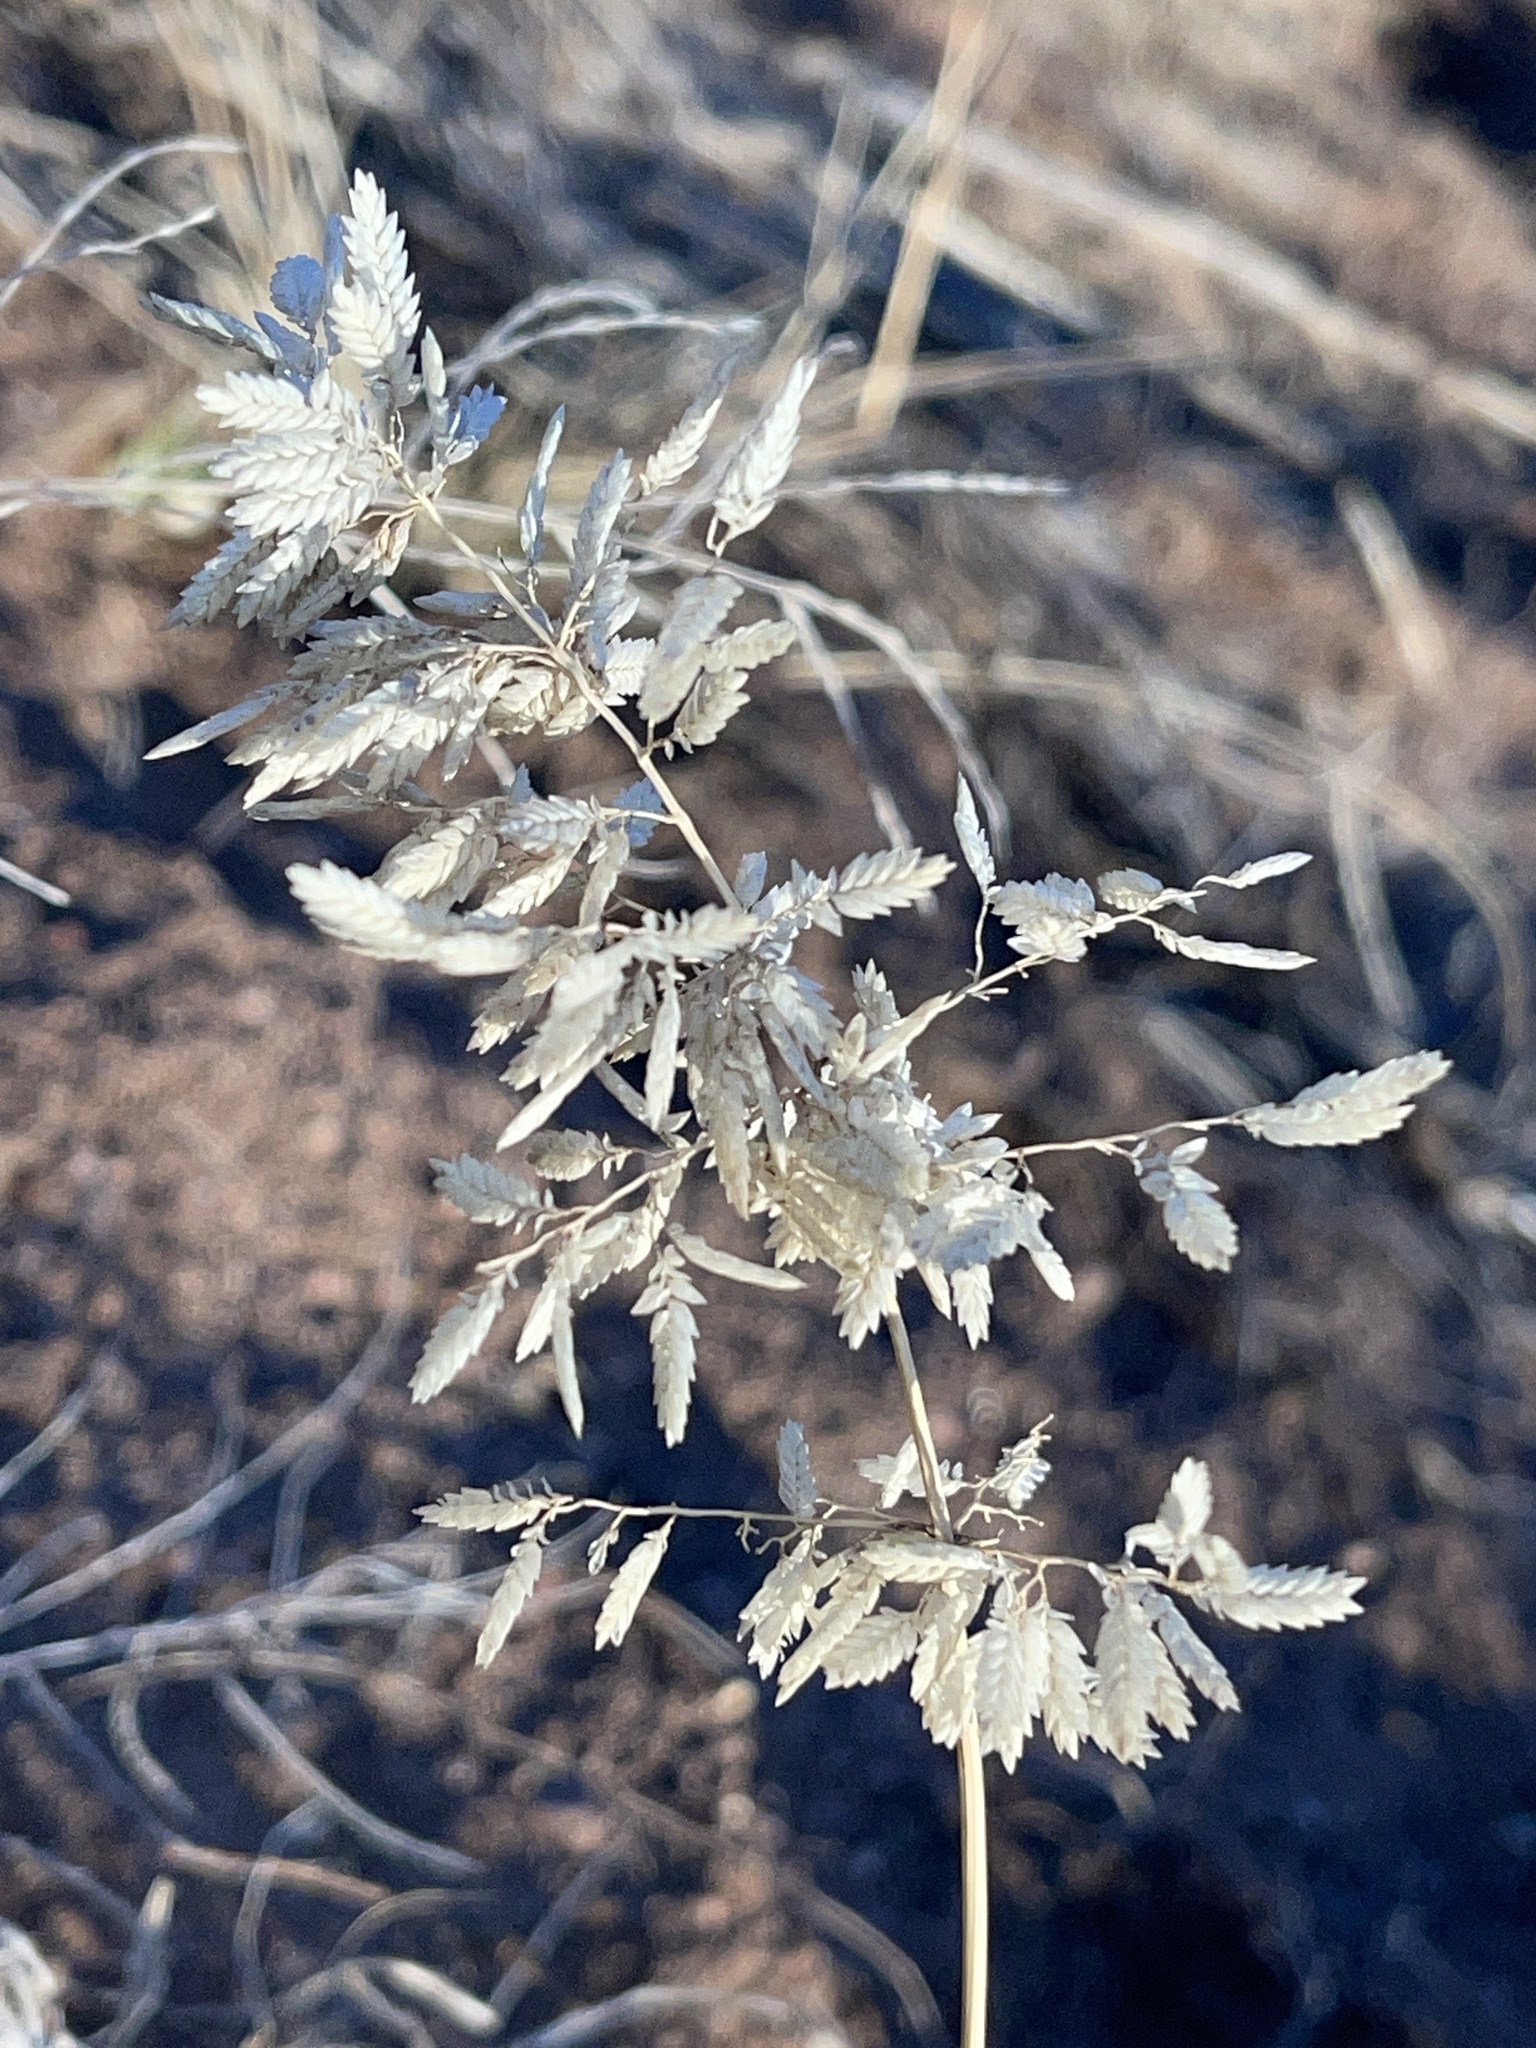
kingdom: Plantae
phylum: Tracheophyta
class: Liliopsida
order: Poales
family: Poaceae
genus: Eragrostis
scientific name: Eragrostis cilianensis
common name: Stinkgrass
